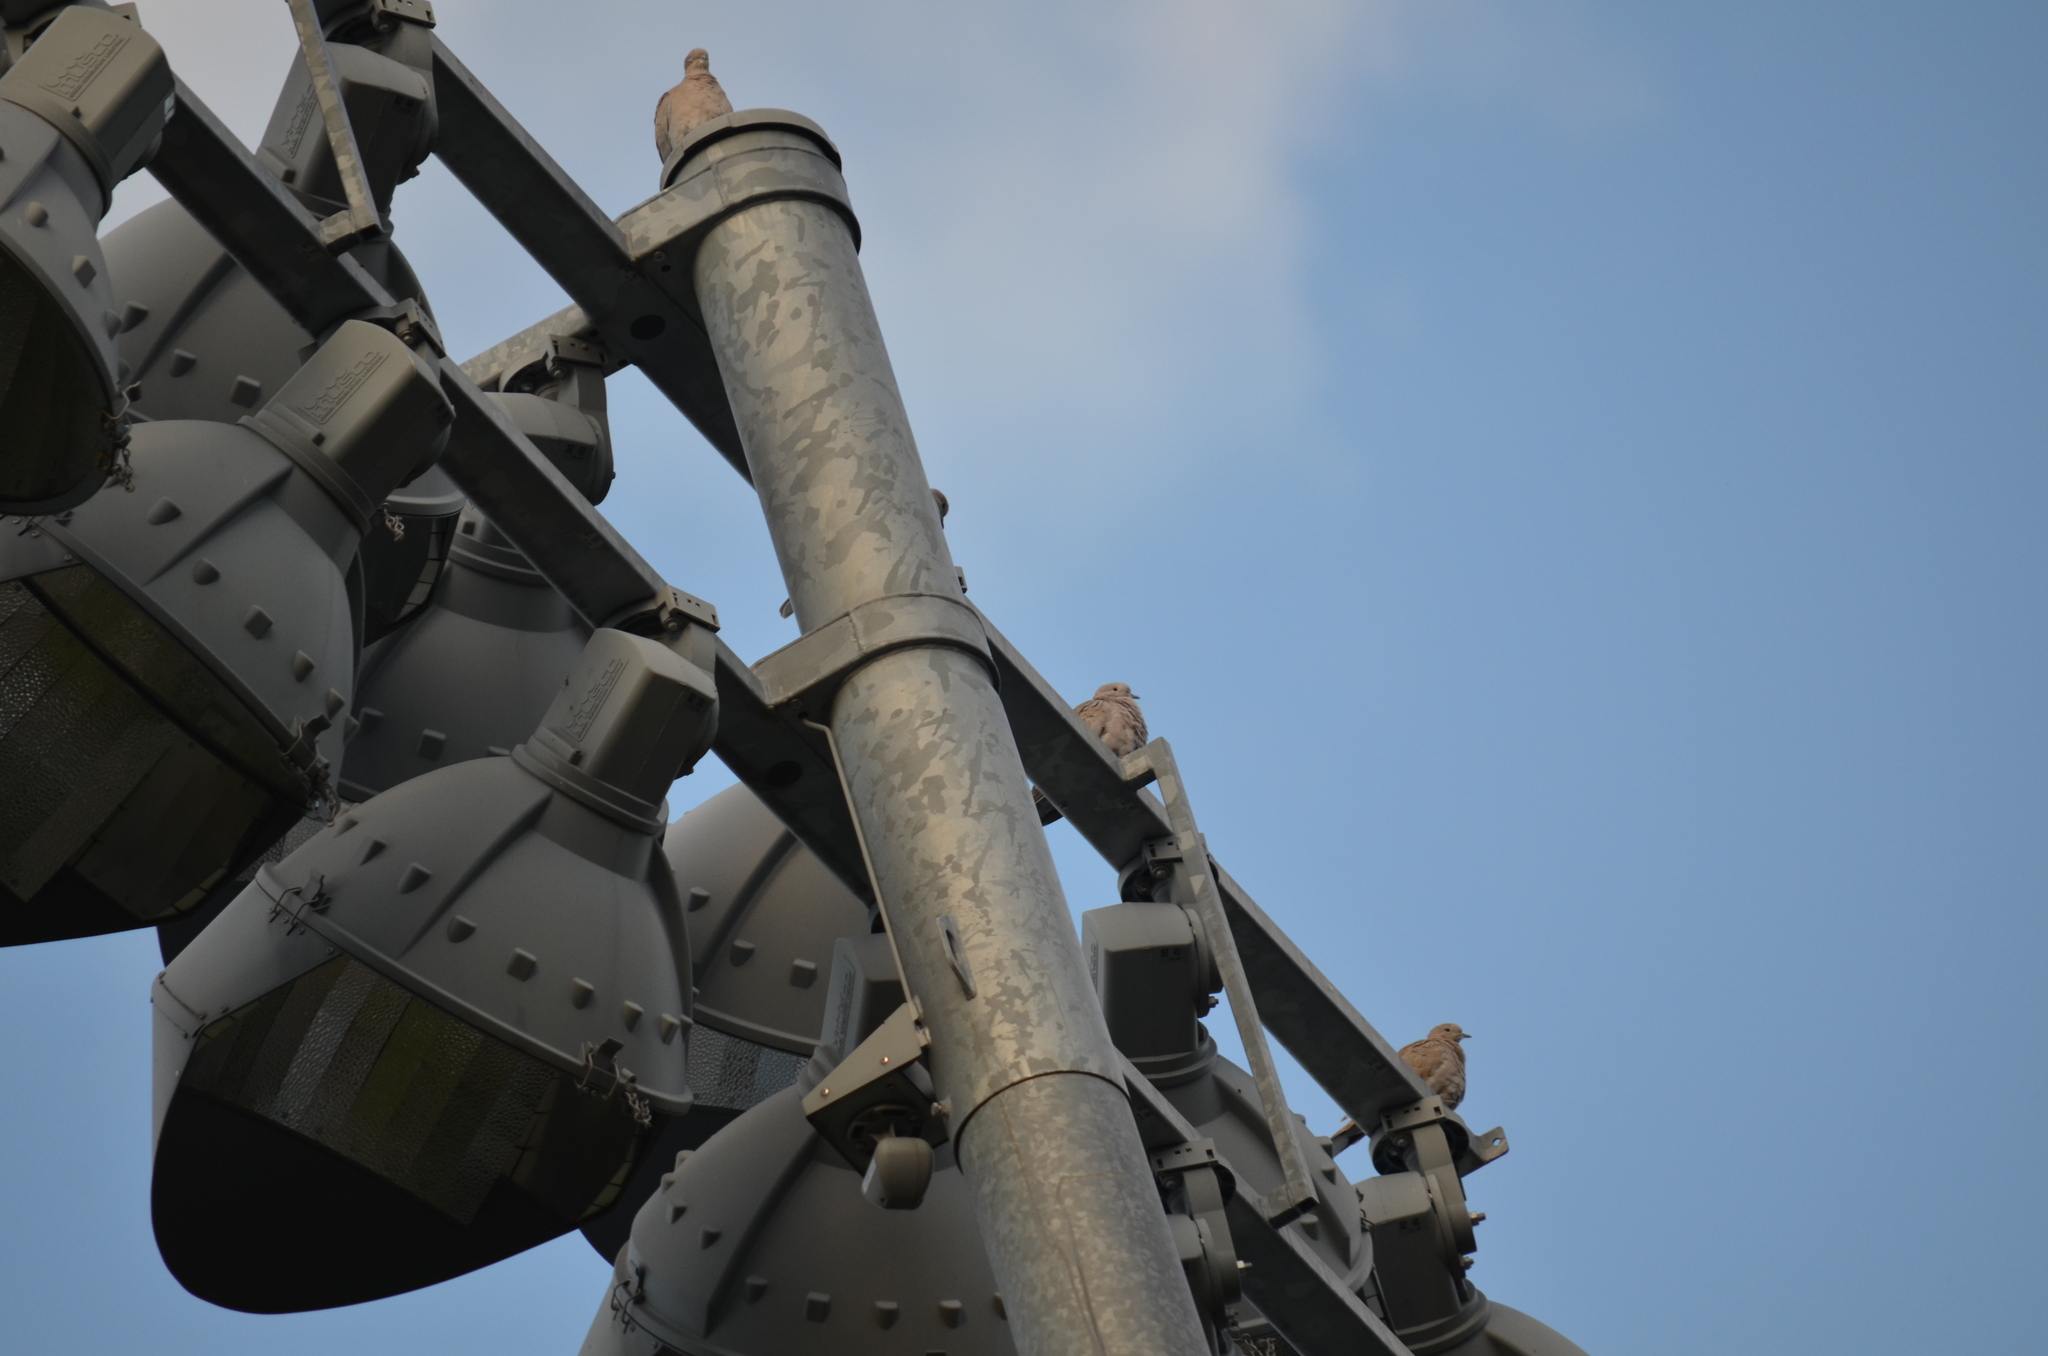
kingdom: Animalia
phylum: Chordata
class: Aves
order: Columbiformes
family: Columbidae
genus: Streptopelia
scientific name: Streptopelia decaocto
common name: Eurasian collared dove
